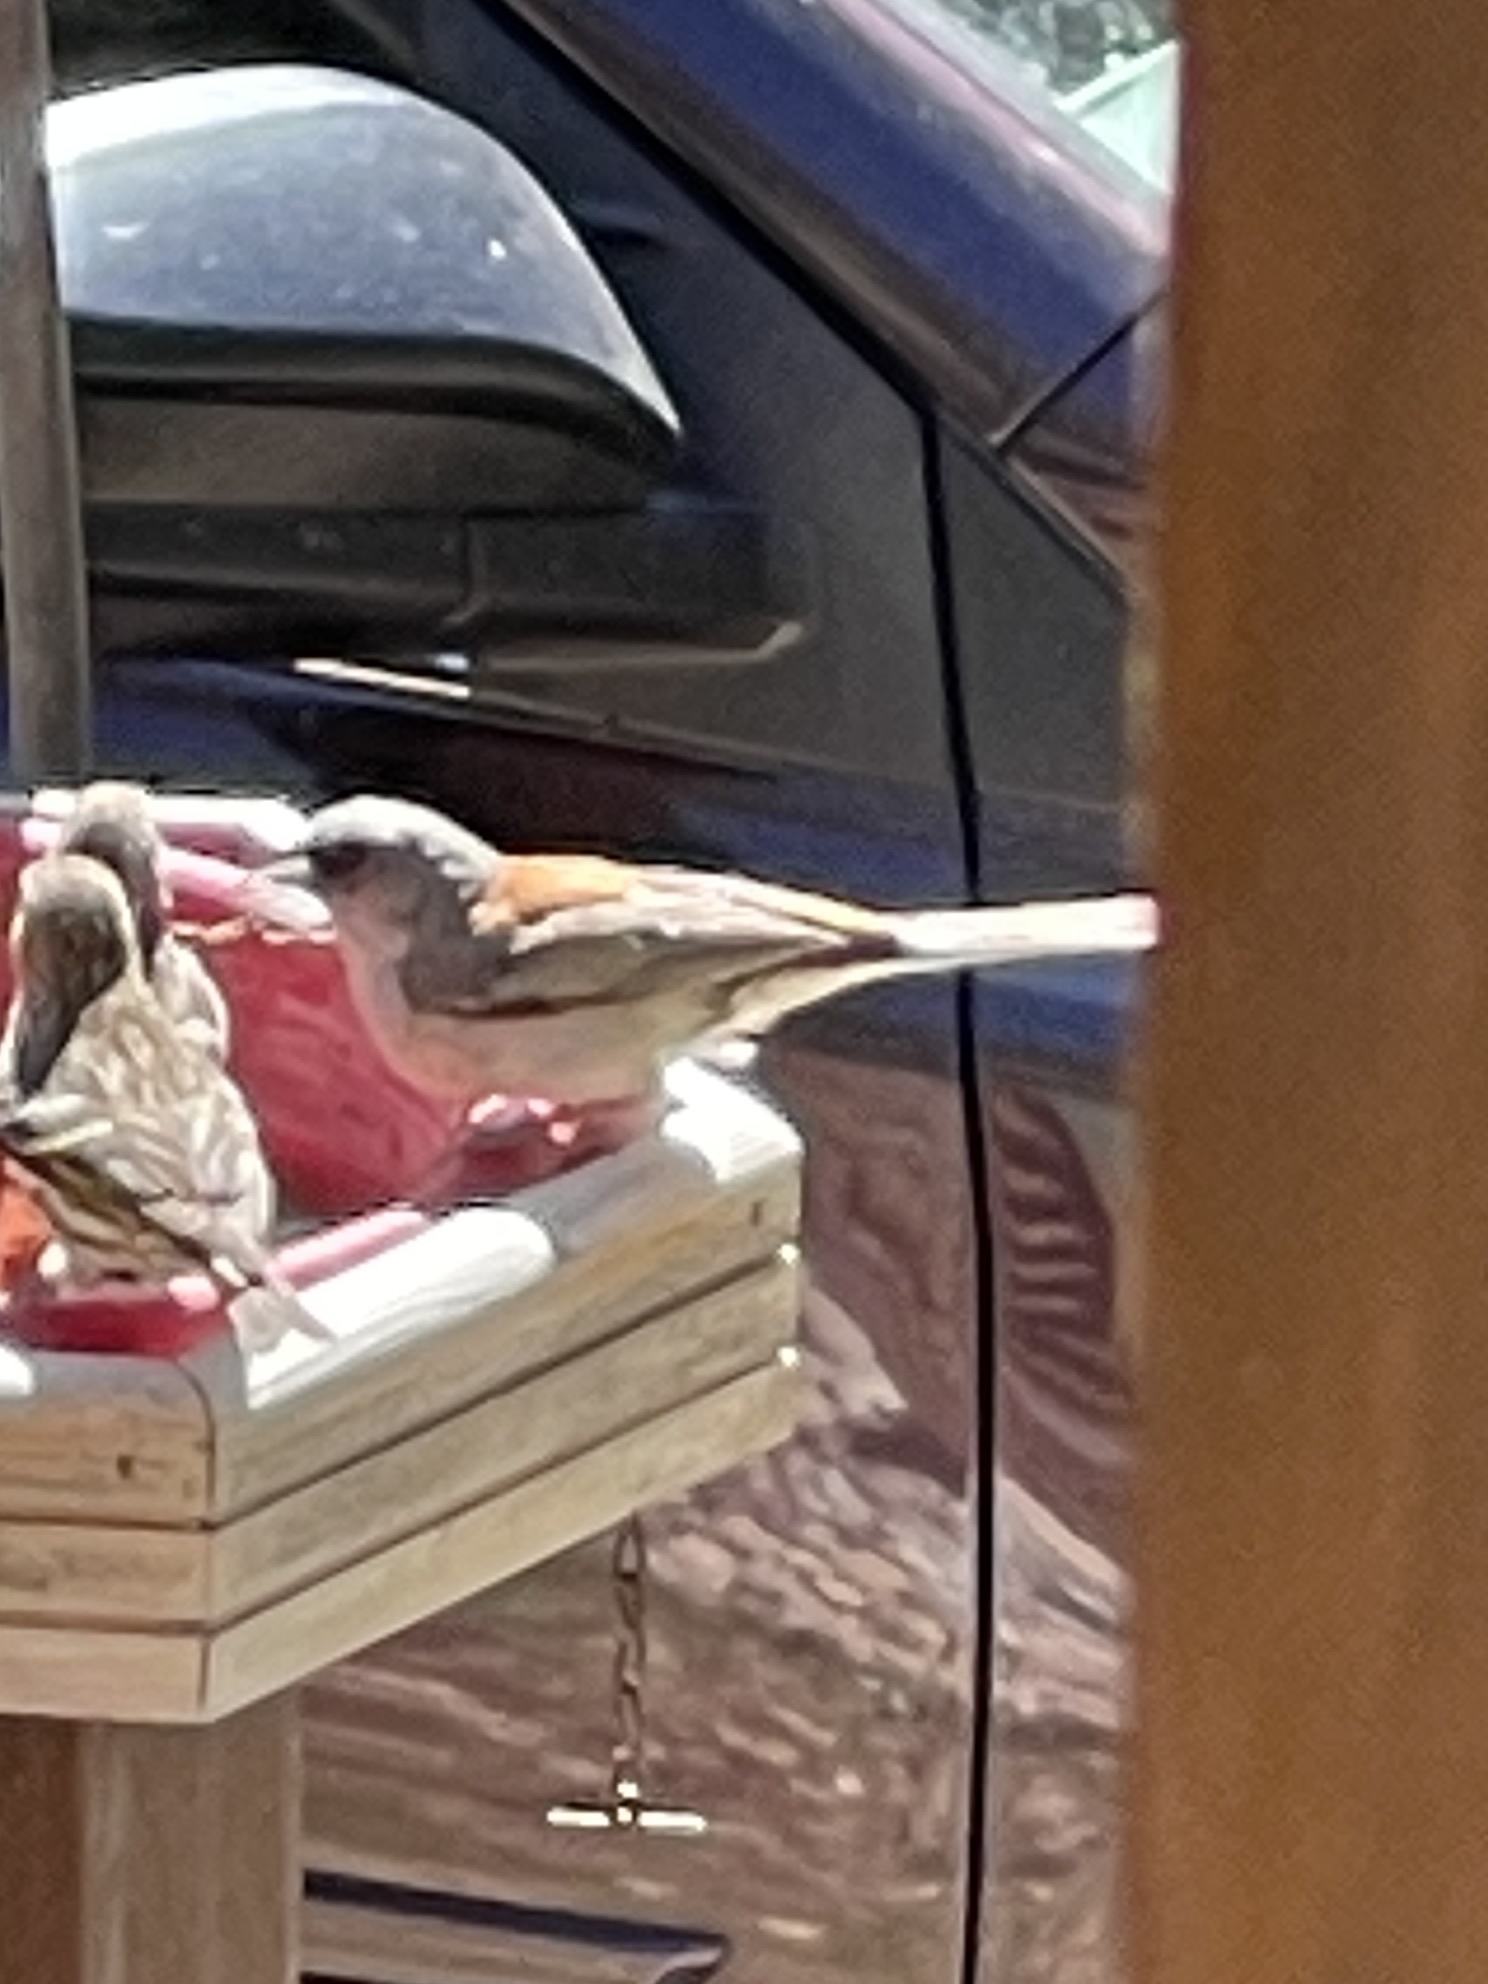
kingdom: Animalia
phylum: Chordata
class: Aves
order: Passeriformes
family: Passerellidae
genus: Junco
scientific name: Junco hyemalis
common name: Dark-eyed junco
